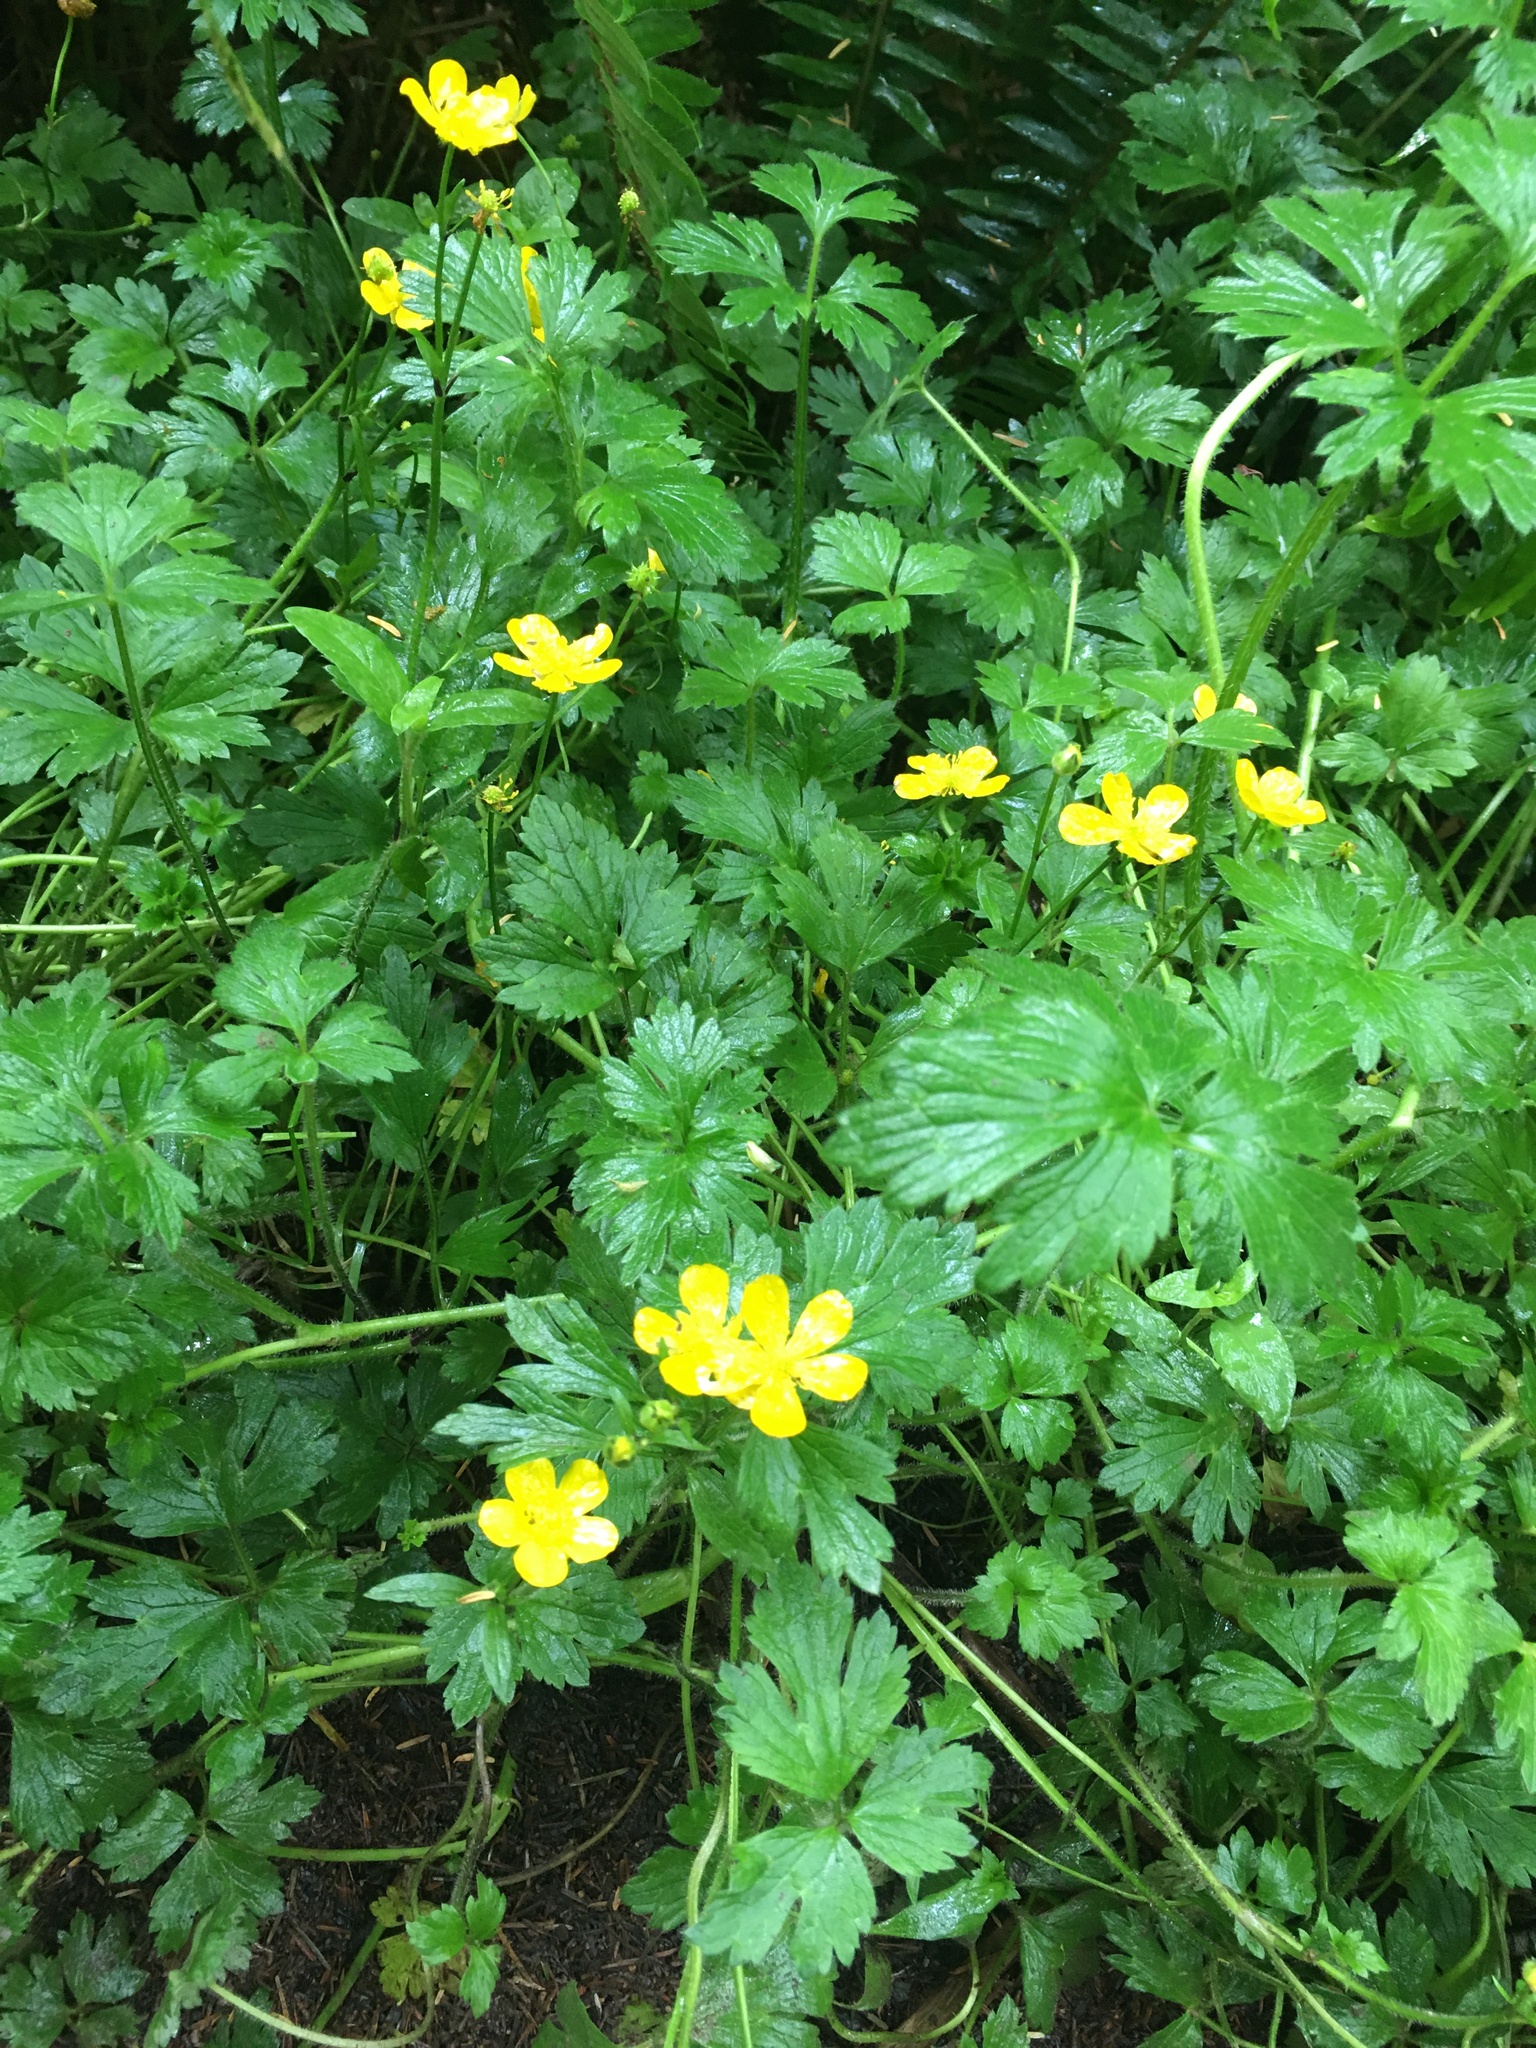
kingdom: Plantae
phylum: Tracheophyta
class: Magnoliopsida
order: Ranunculales
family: Ranunculaceae
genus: Ranunculus
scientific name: Ranunculus repens
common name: Creeping buttercup
